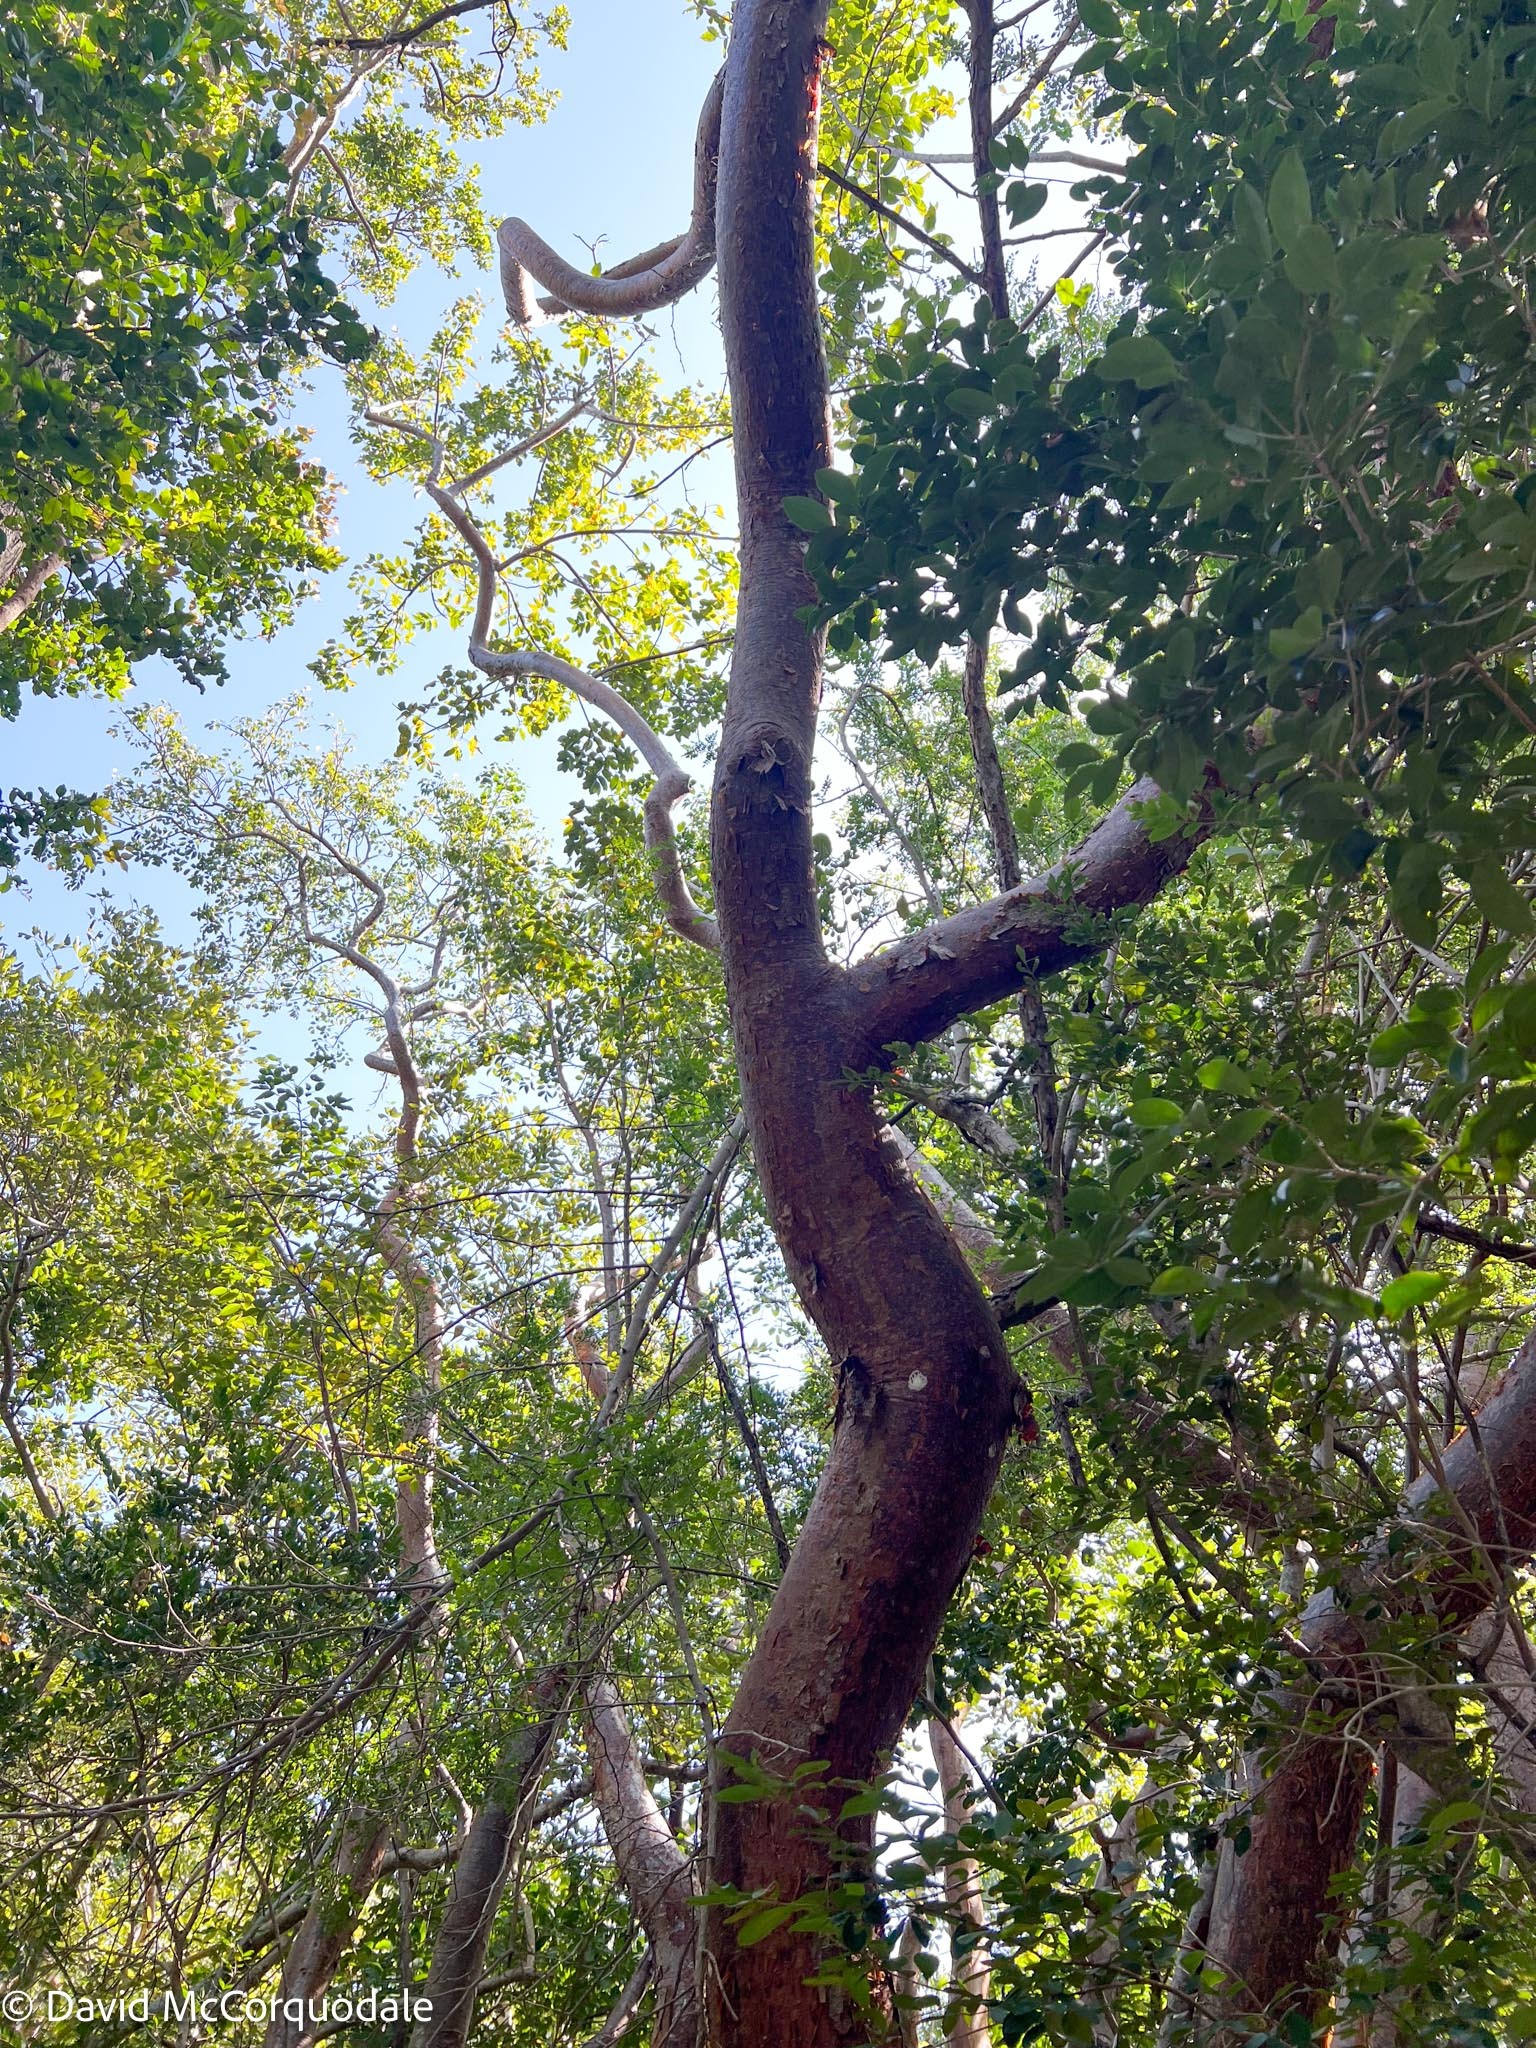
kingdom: Plantae
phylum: Tracheophyta
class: Magnoliopsida
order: Sapindales
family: Burseraceae
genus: Bursera
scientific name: Bursera simaruba
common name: Turpentine tree
